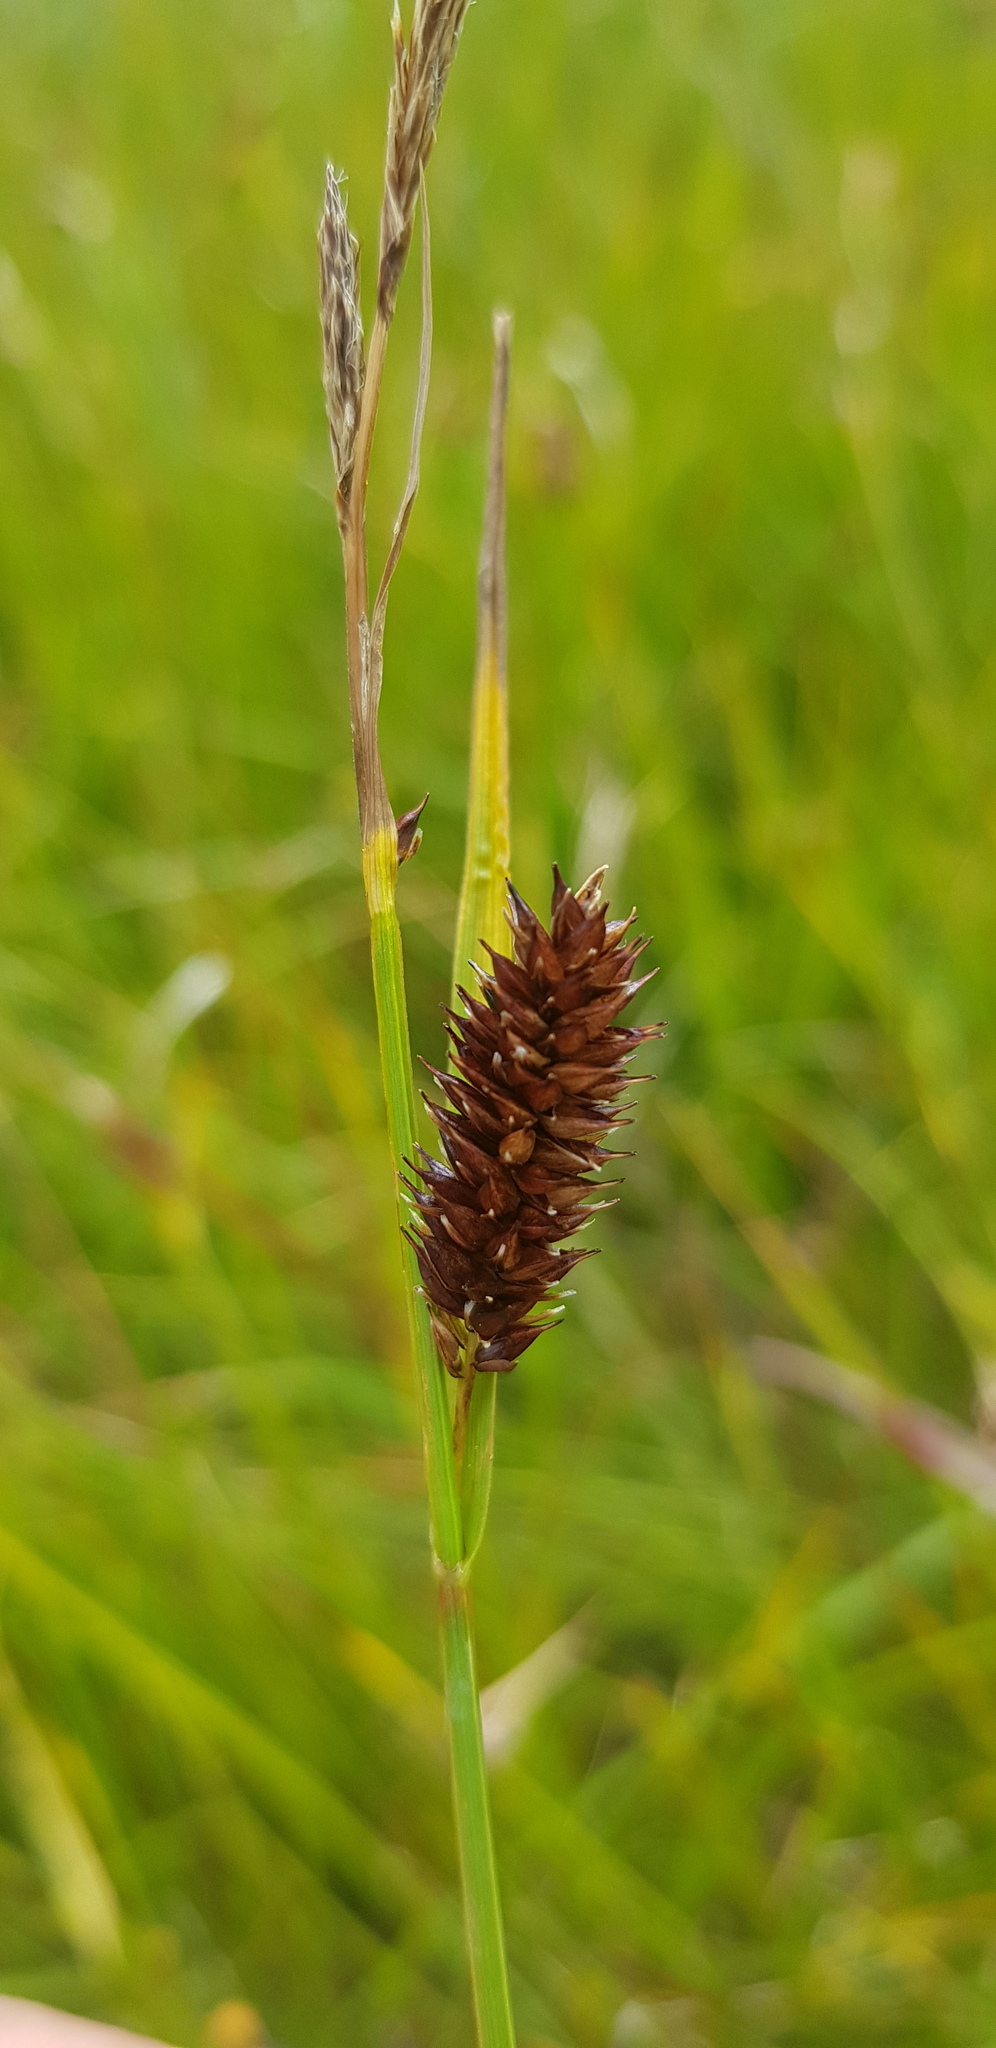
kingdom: Plantae
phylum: Tracheophyta
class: Liliopsida
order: Poales
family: Cyperaceae
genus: Carex
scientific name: Carex pamirensis
